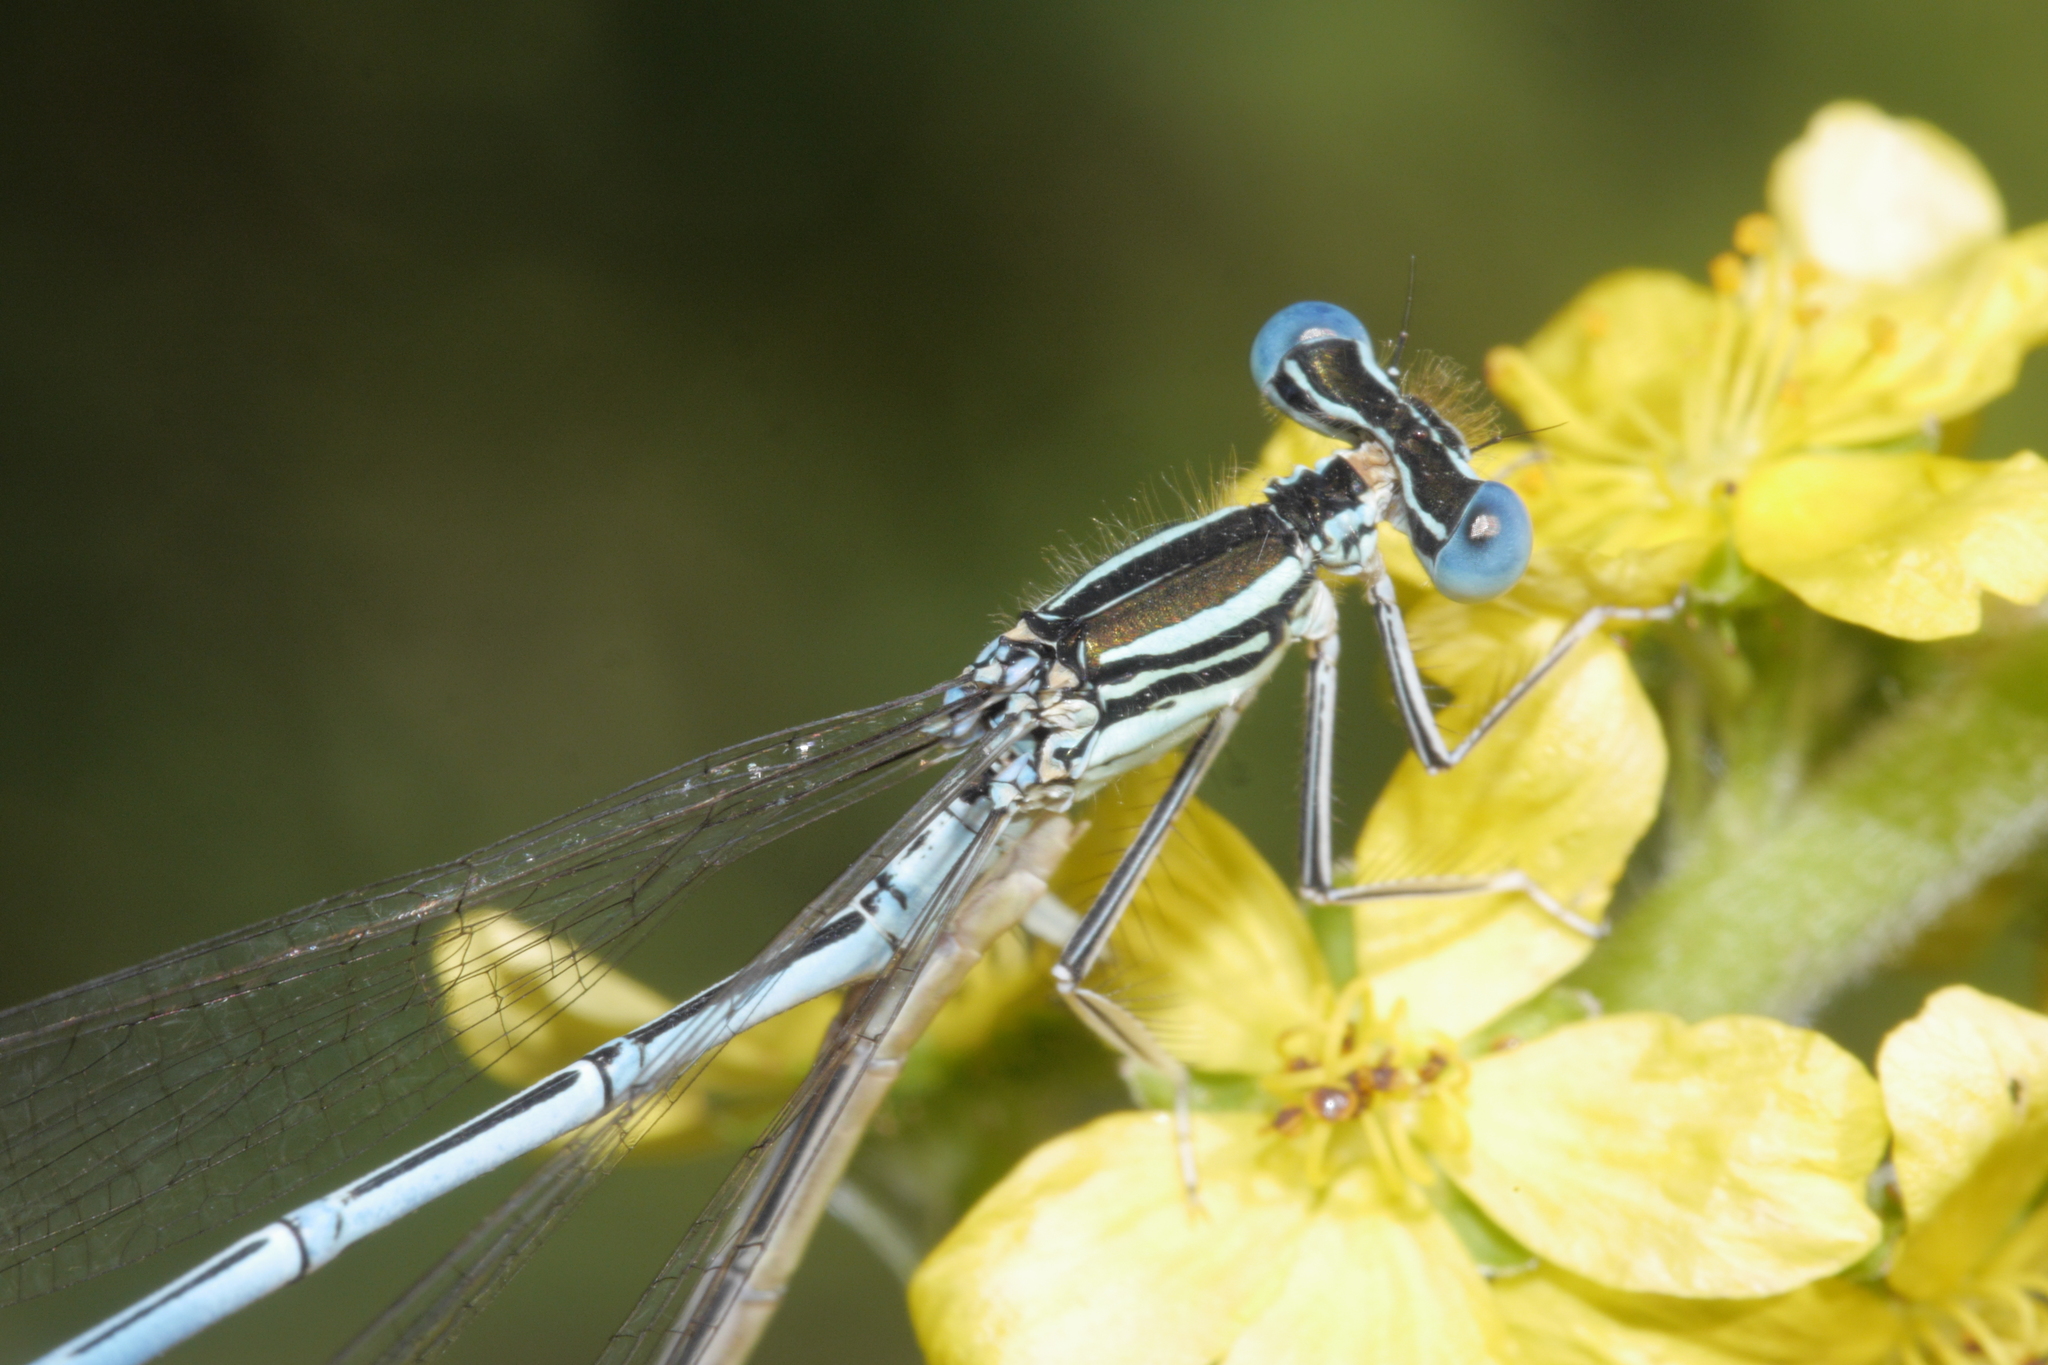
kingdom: Animalia
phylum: Arthropoda
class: Insecta
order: Odonata
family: Platycnemididae
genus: Platycnemis
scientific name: Platycnemis pennipes
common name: White-legged damselfly
